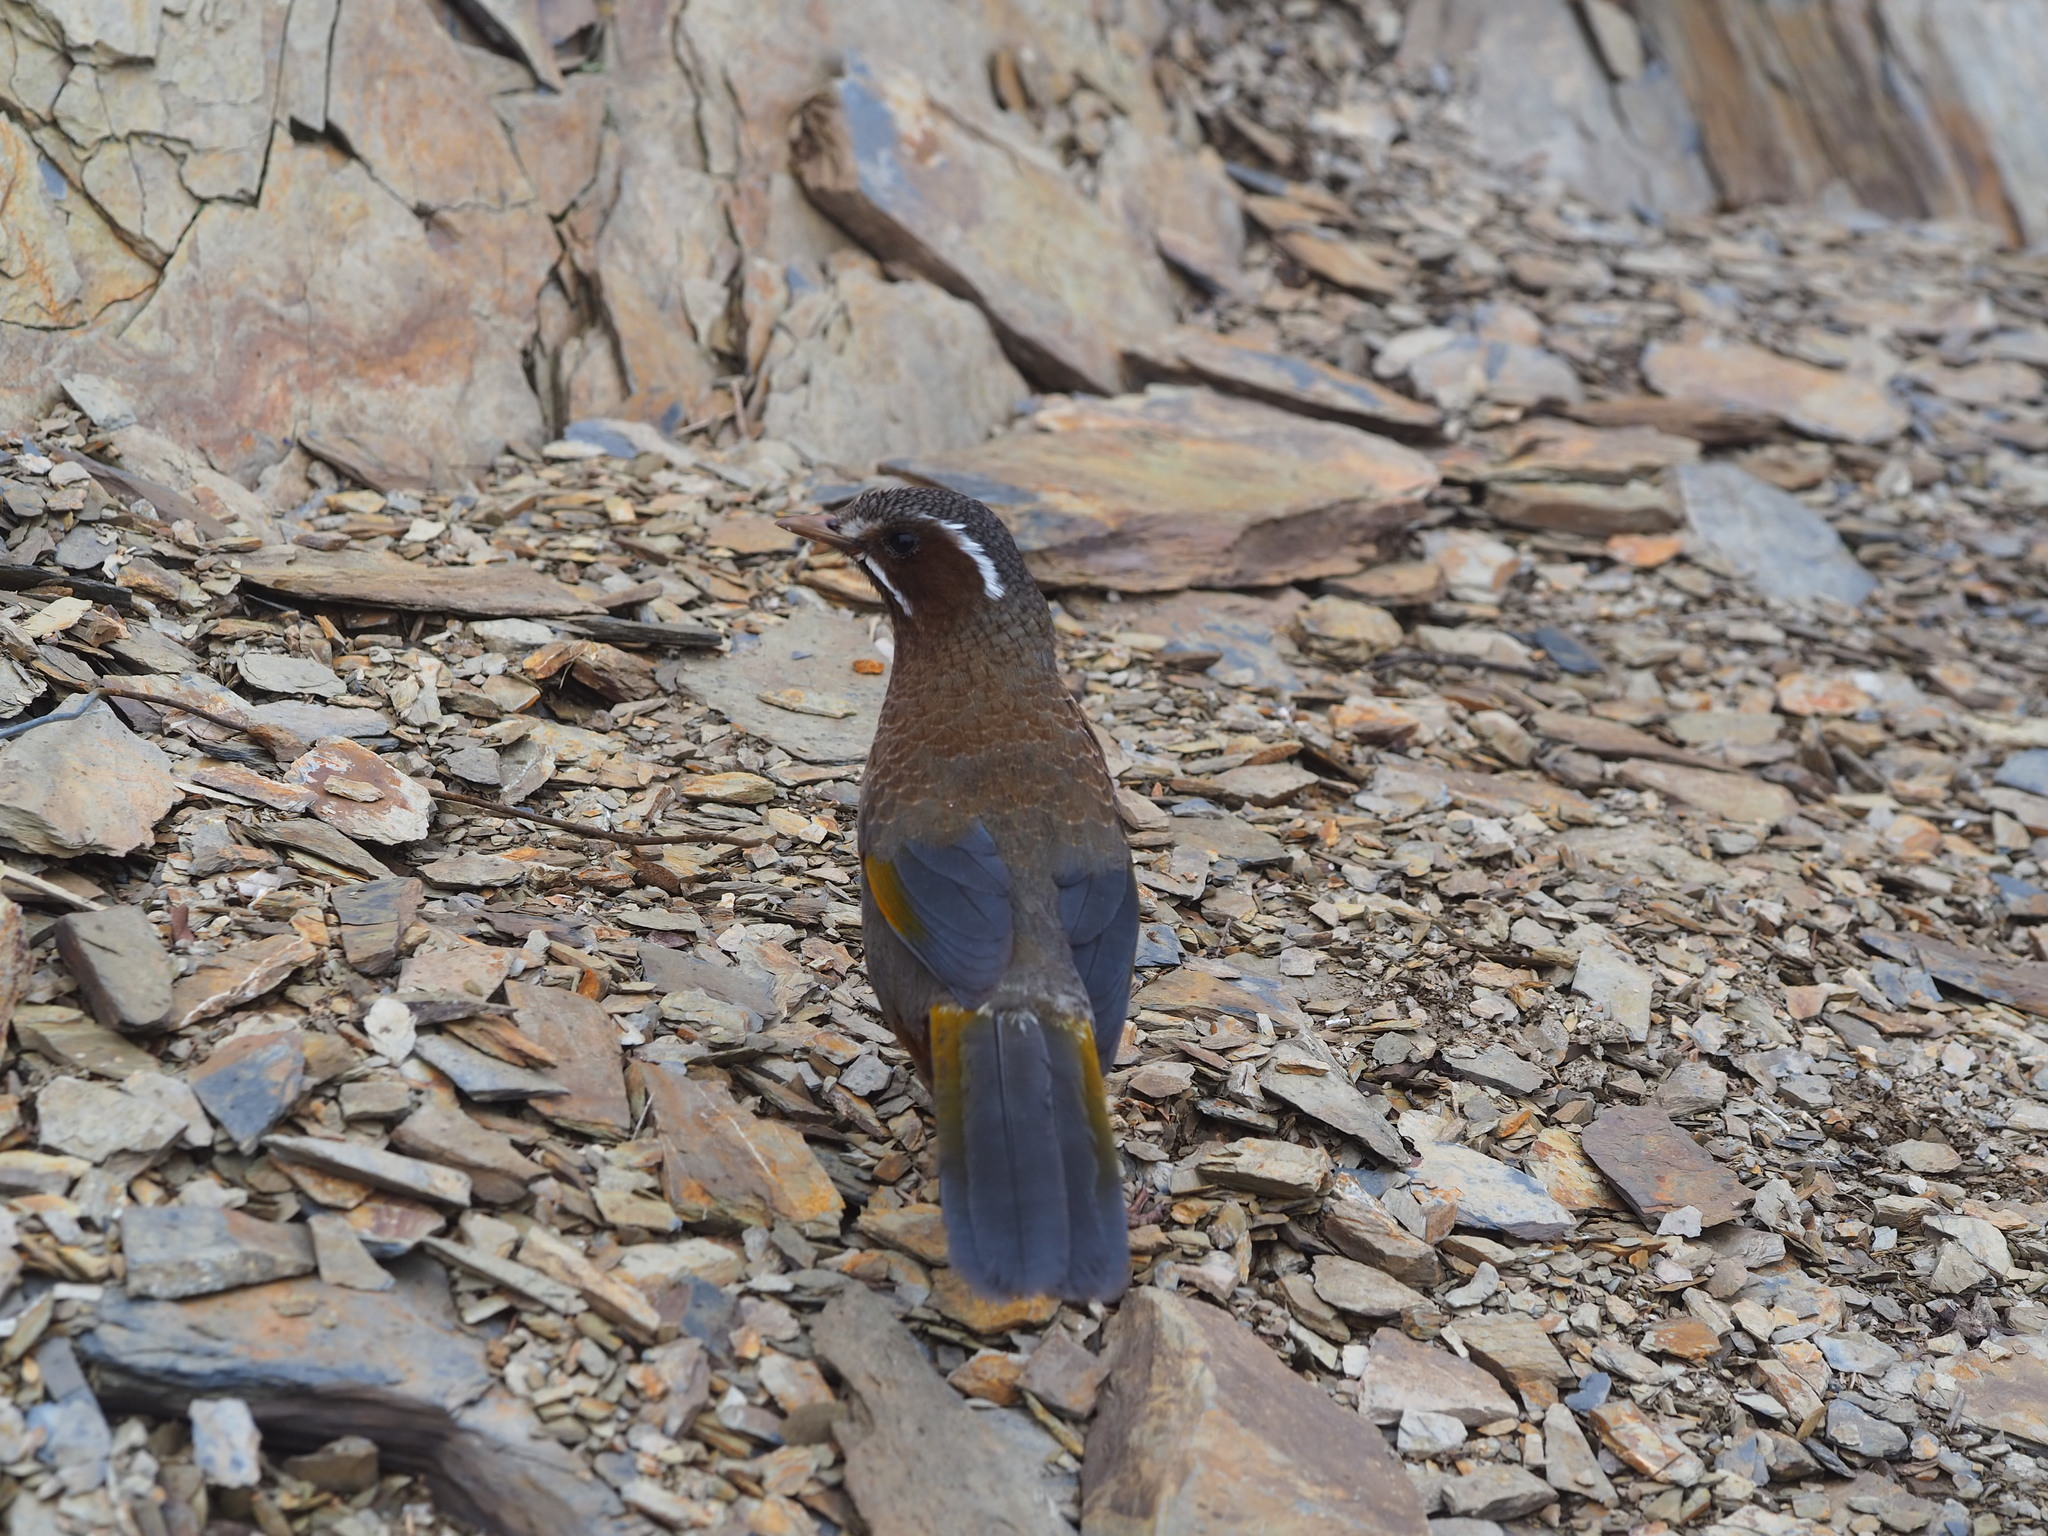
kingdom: Animalia
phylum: Chordata
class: Aves
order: Passeriformes
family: Leiothrichidae
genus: Trochalopteron
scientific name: Trochalopteron morrisonianum
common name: White-whiskered laughingthrush
